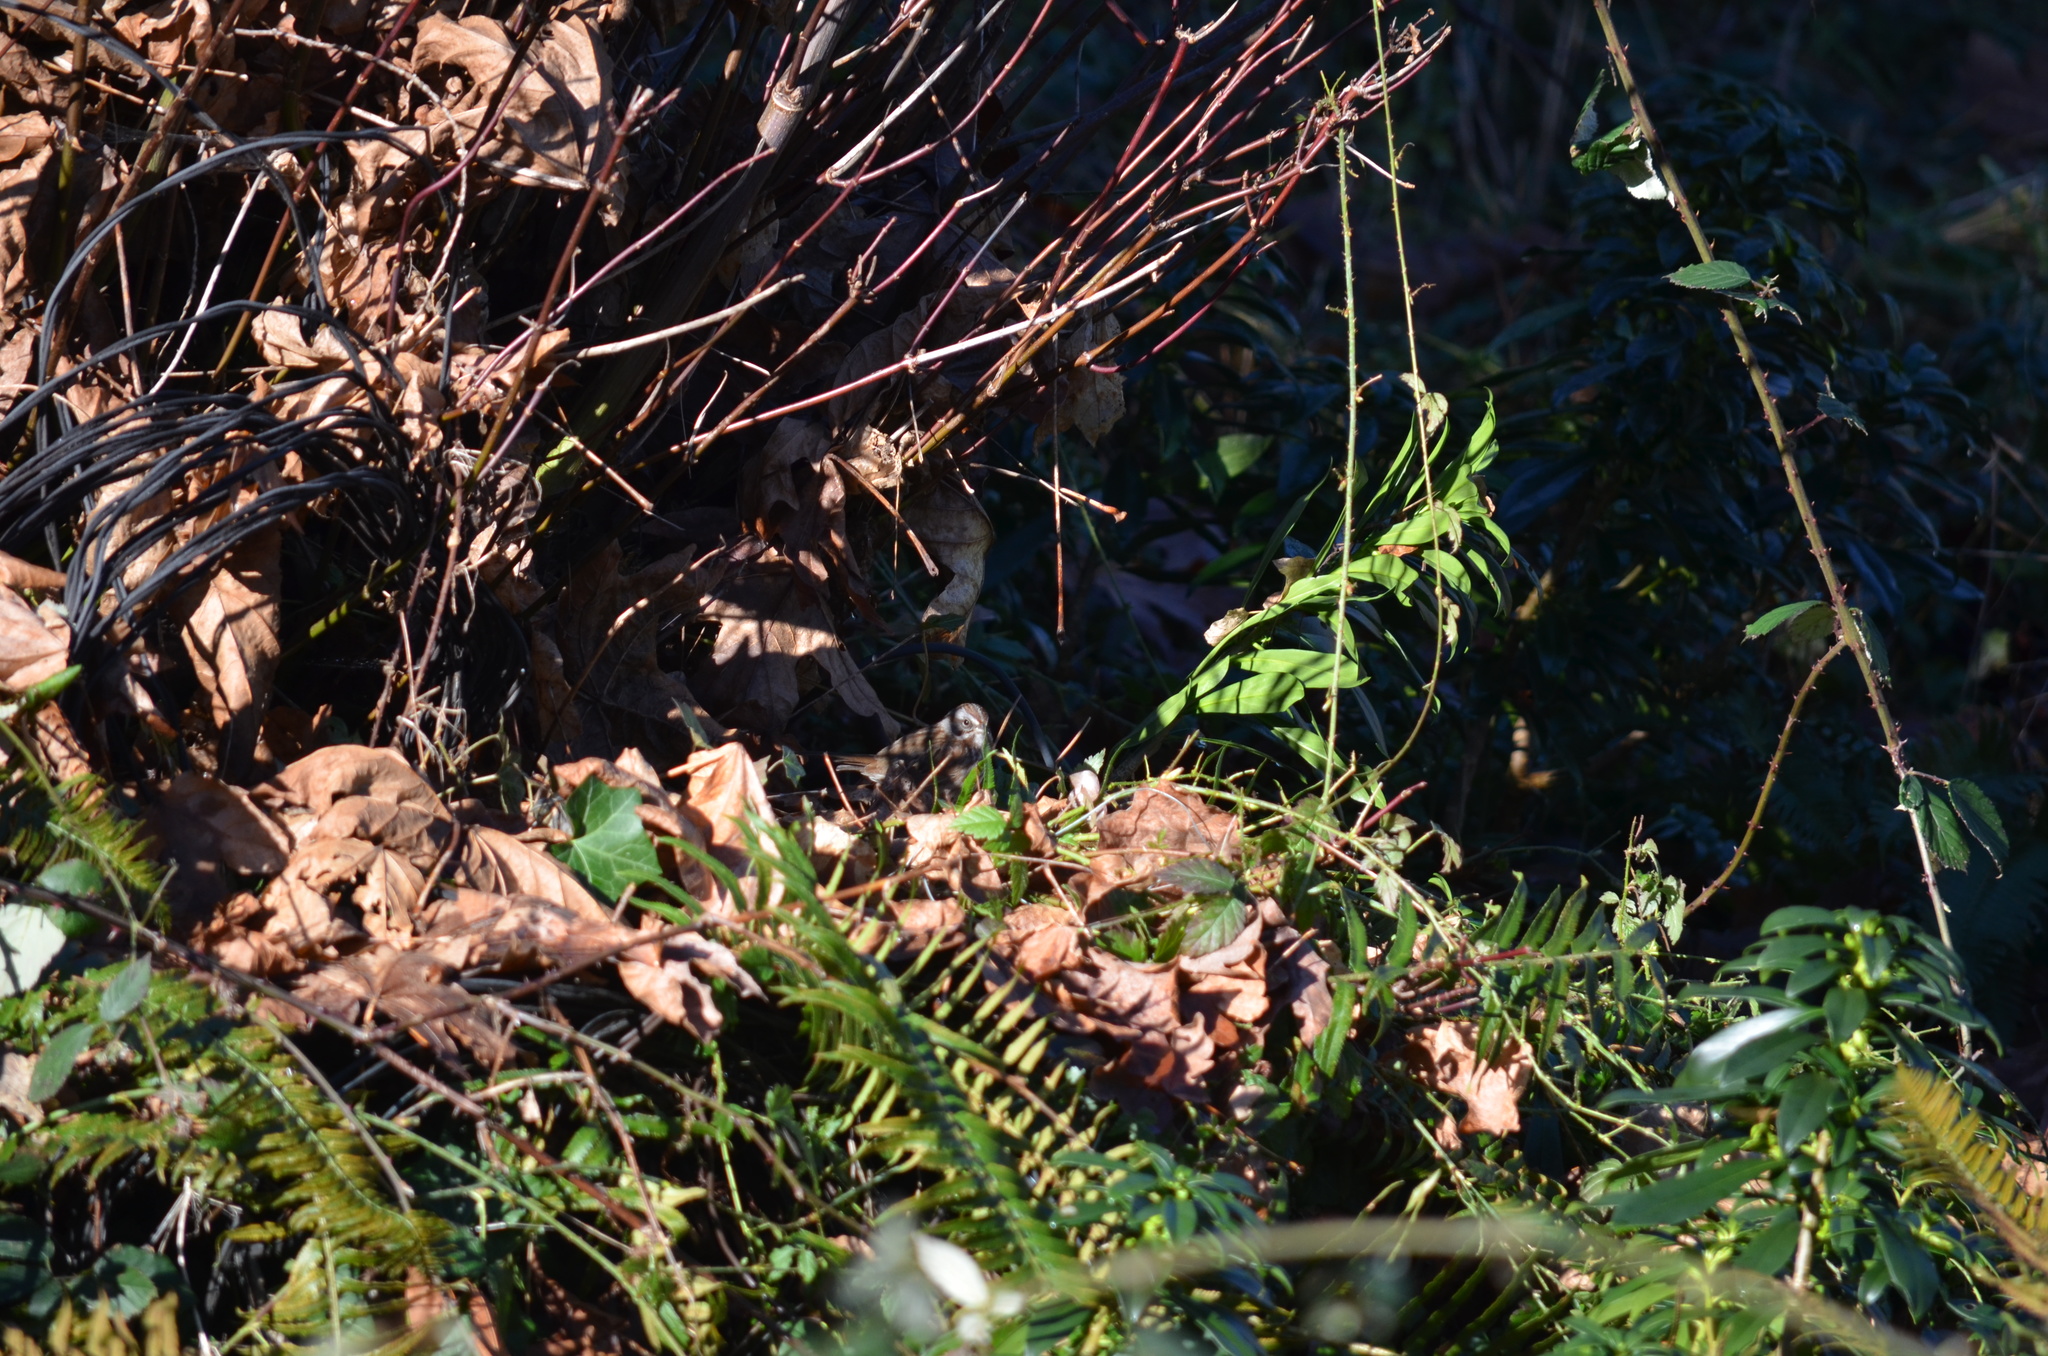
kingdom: Animalia
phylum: Chordata
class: Aves
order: Passeriformes
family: Passerellidae
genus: Melospiza
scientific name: Melospiza melodia
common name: Song sparrow
